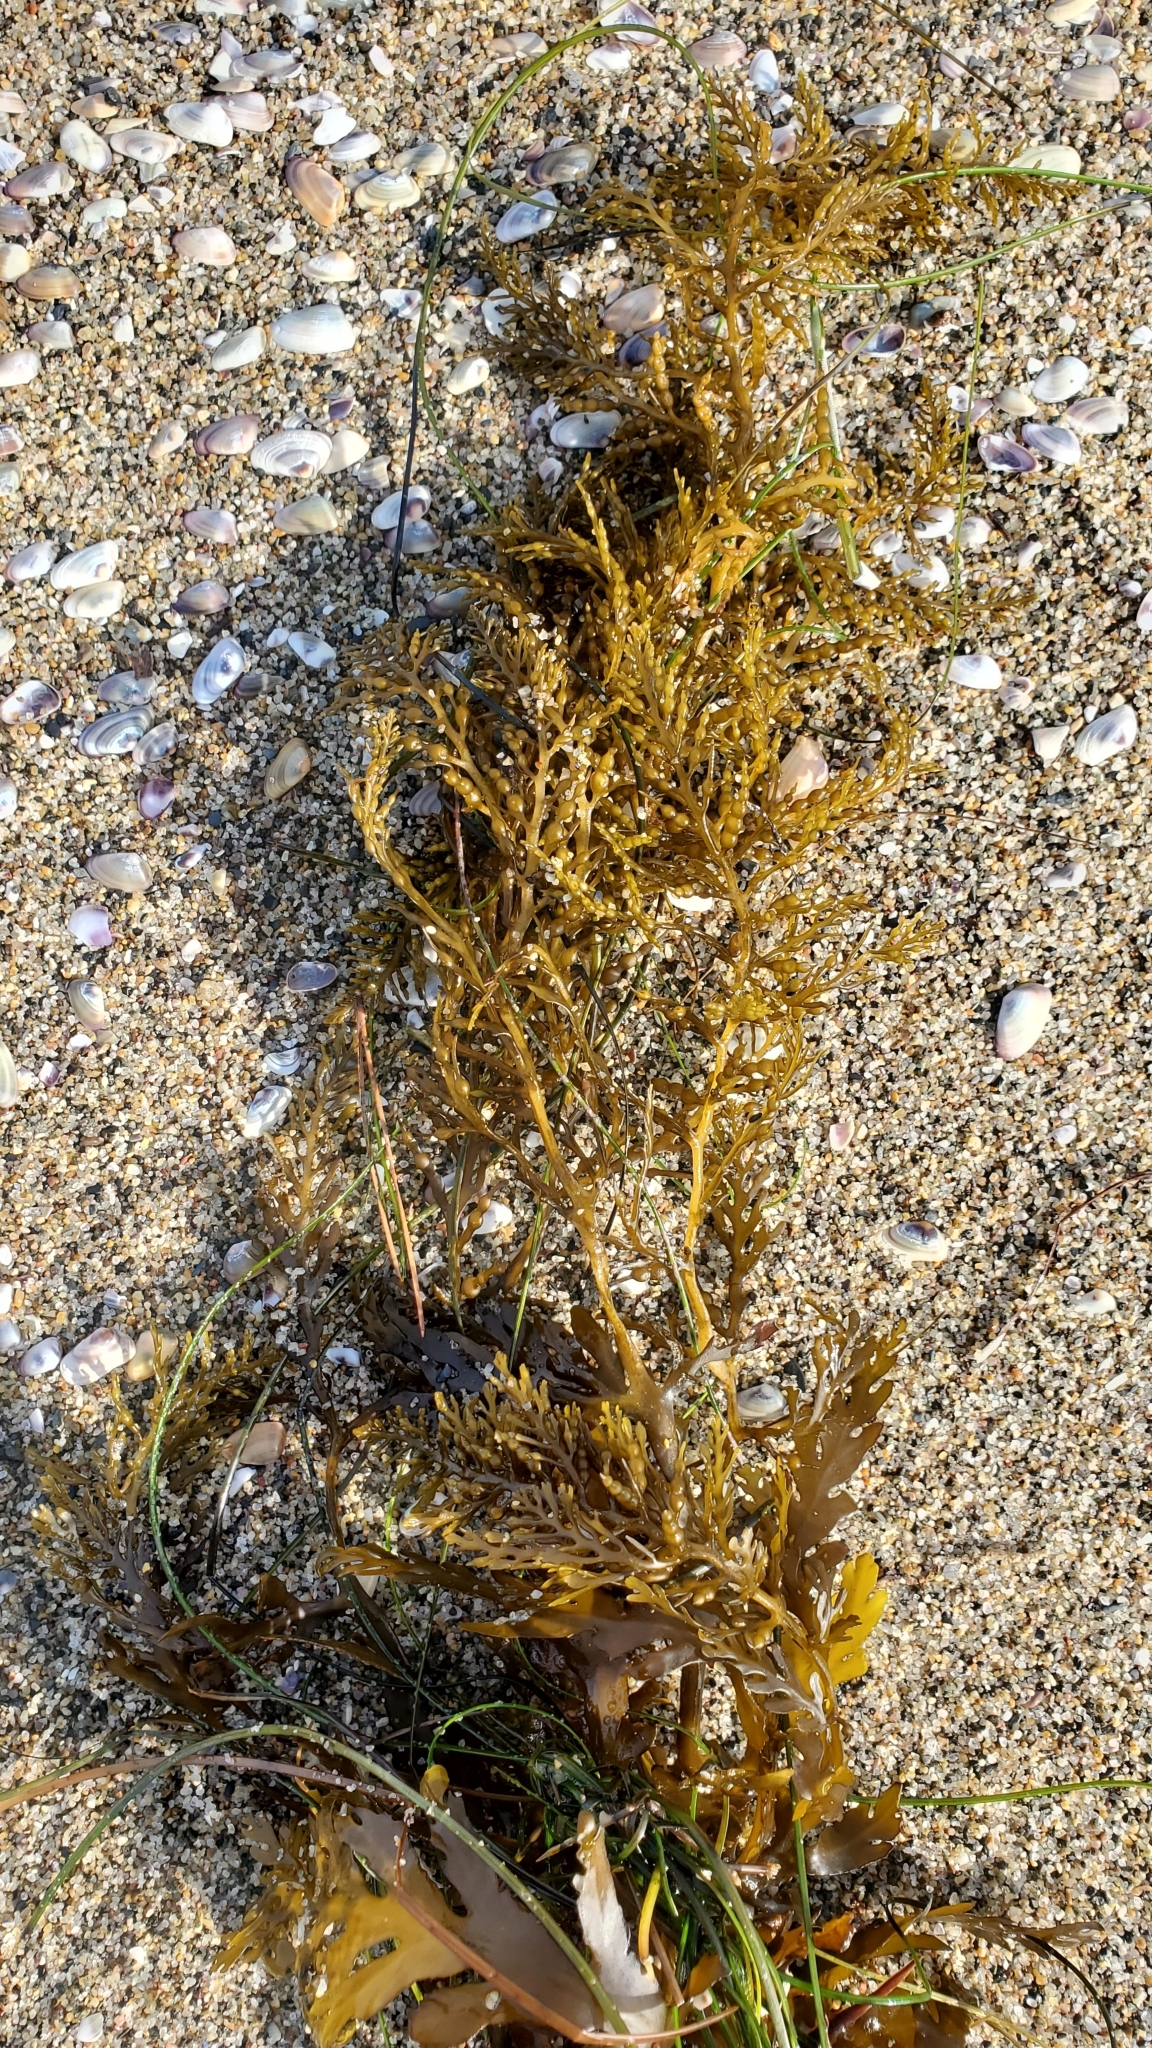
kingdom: Chromista
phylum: Ochrophyta
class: Phaeophyceae
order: Fucales
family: Sargassaceae
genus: Stephanocystis
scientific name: Stephanocystis
